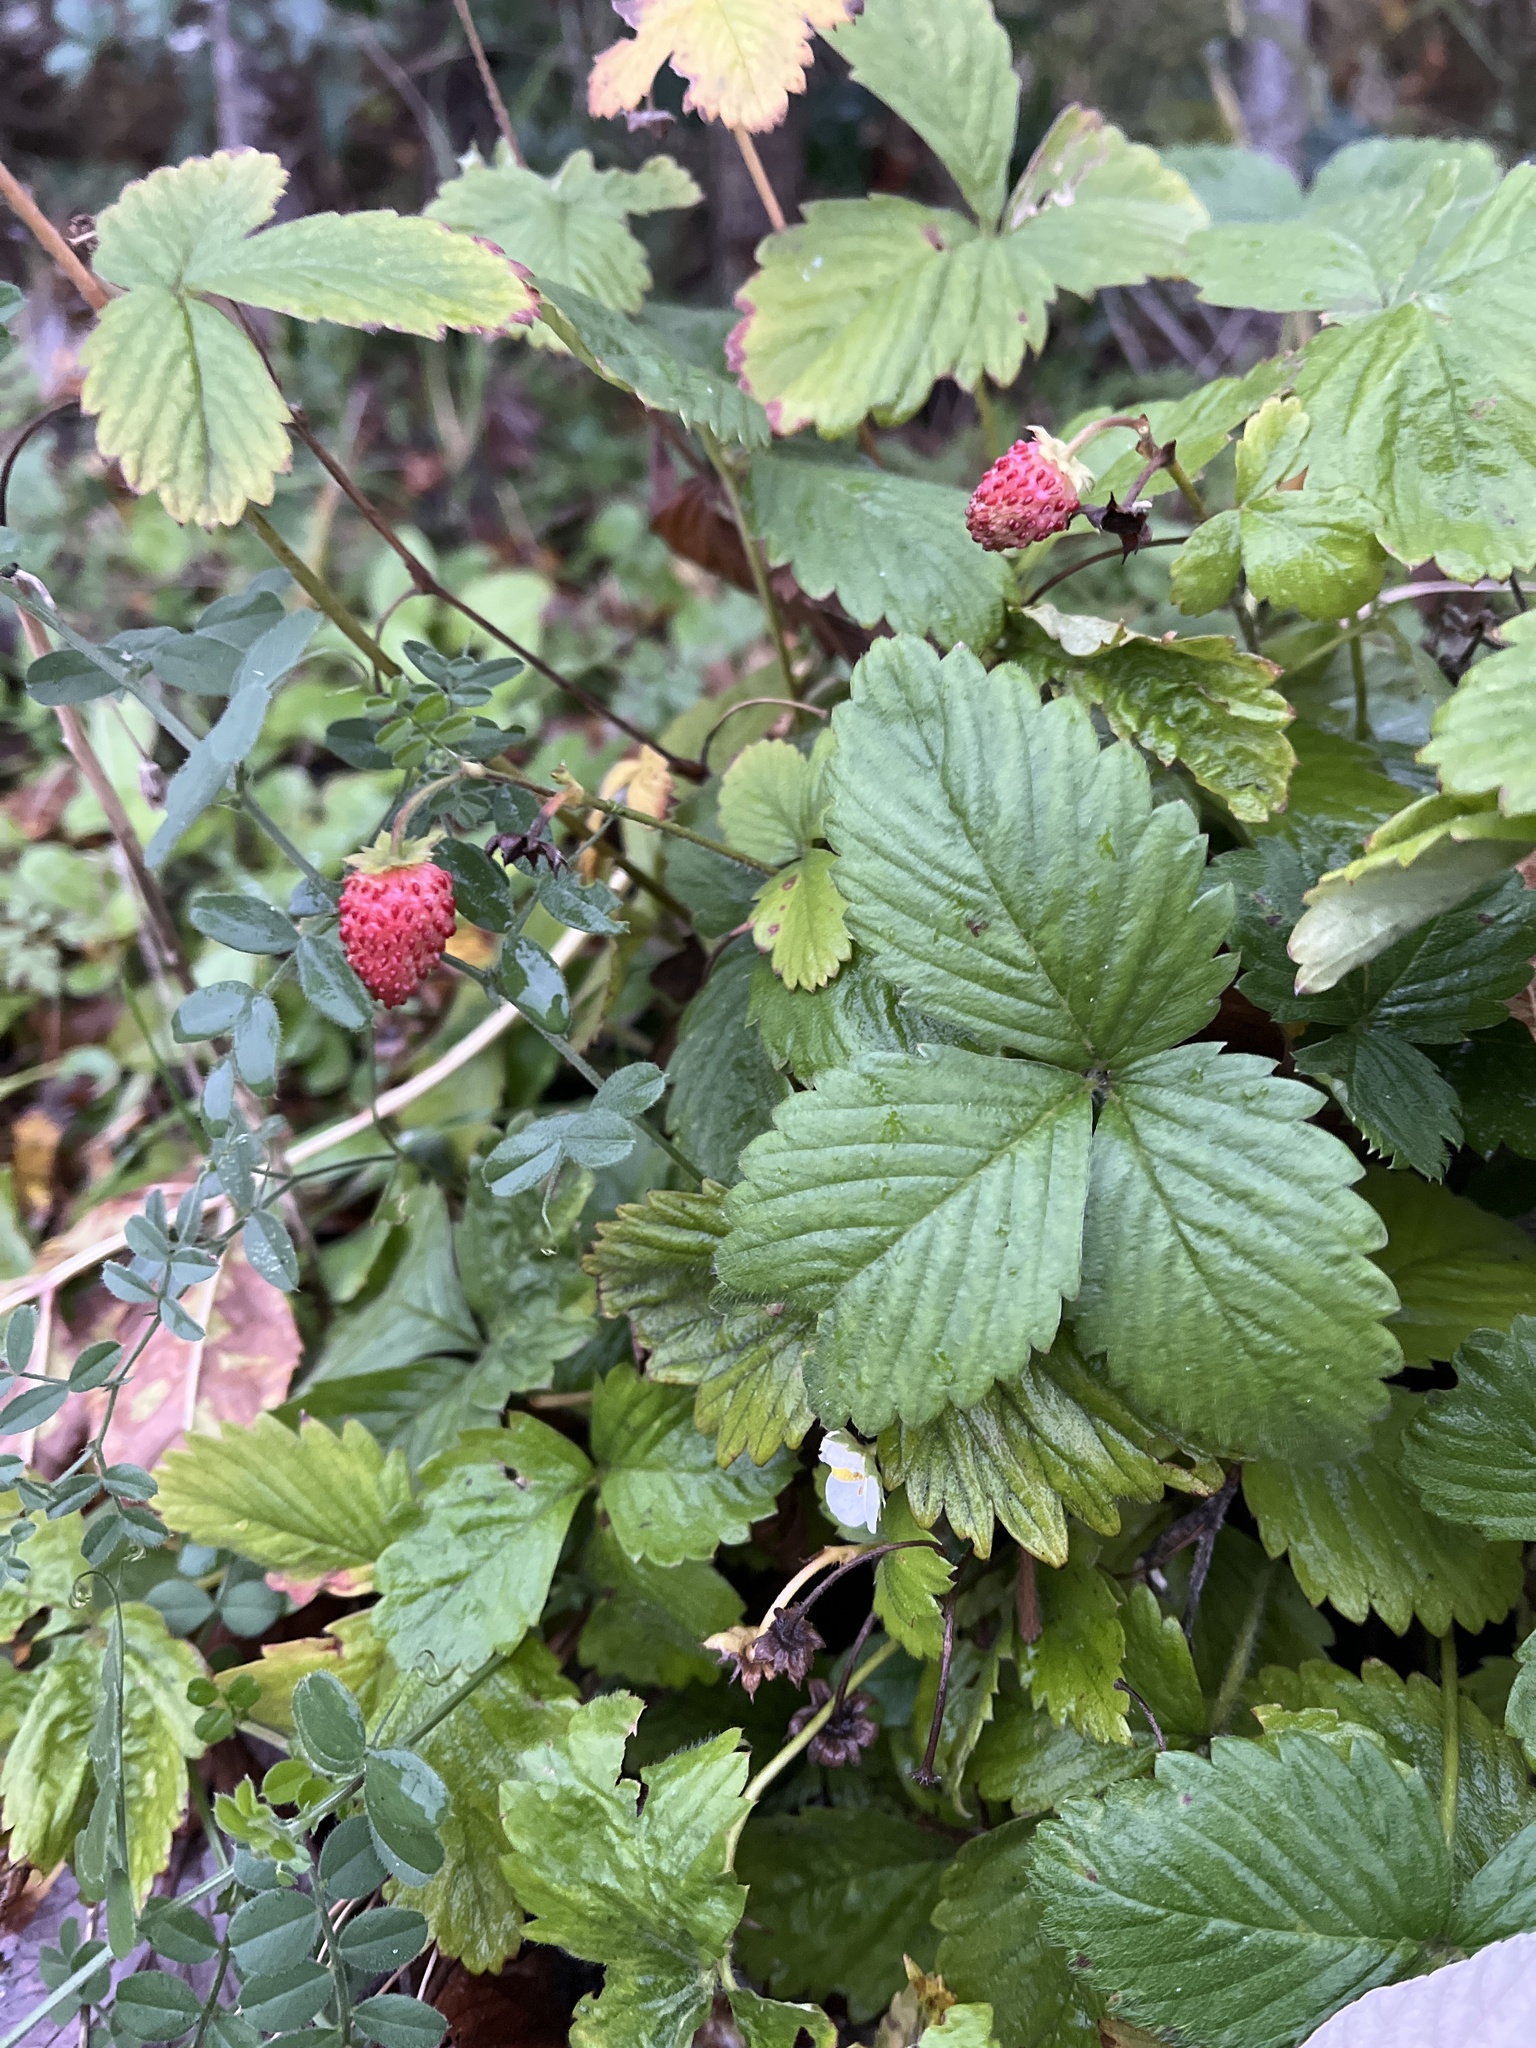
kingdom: Plantae
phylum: Tracheophyta
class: Magnoliopsida
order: Rosales
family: Rosaceae
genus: Fragaria
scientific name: Fragaria ananassa
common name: Garden strawberry
